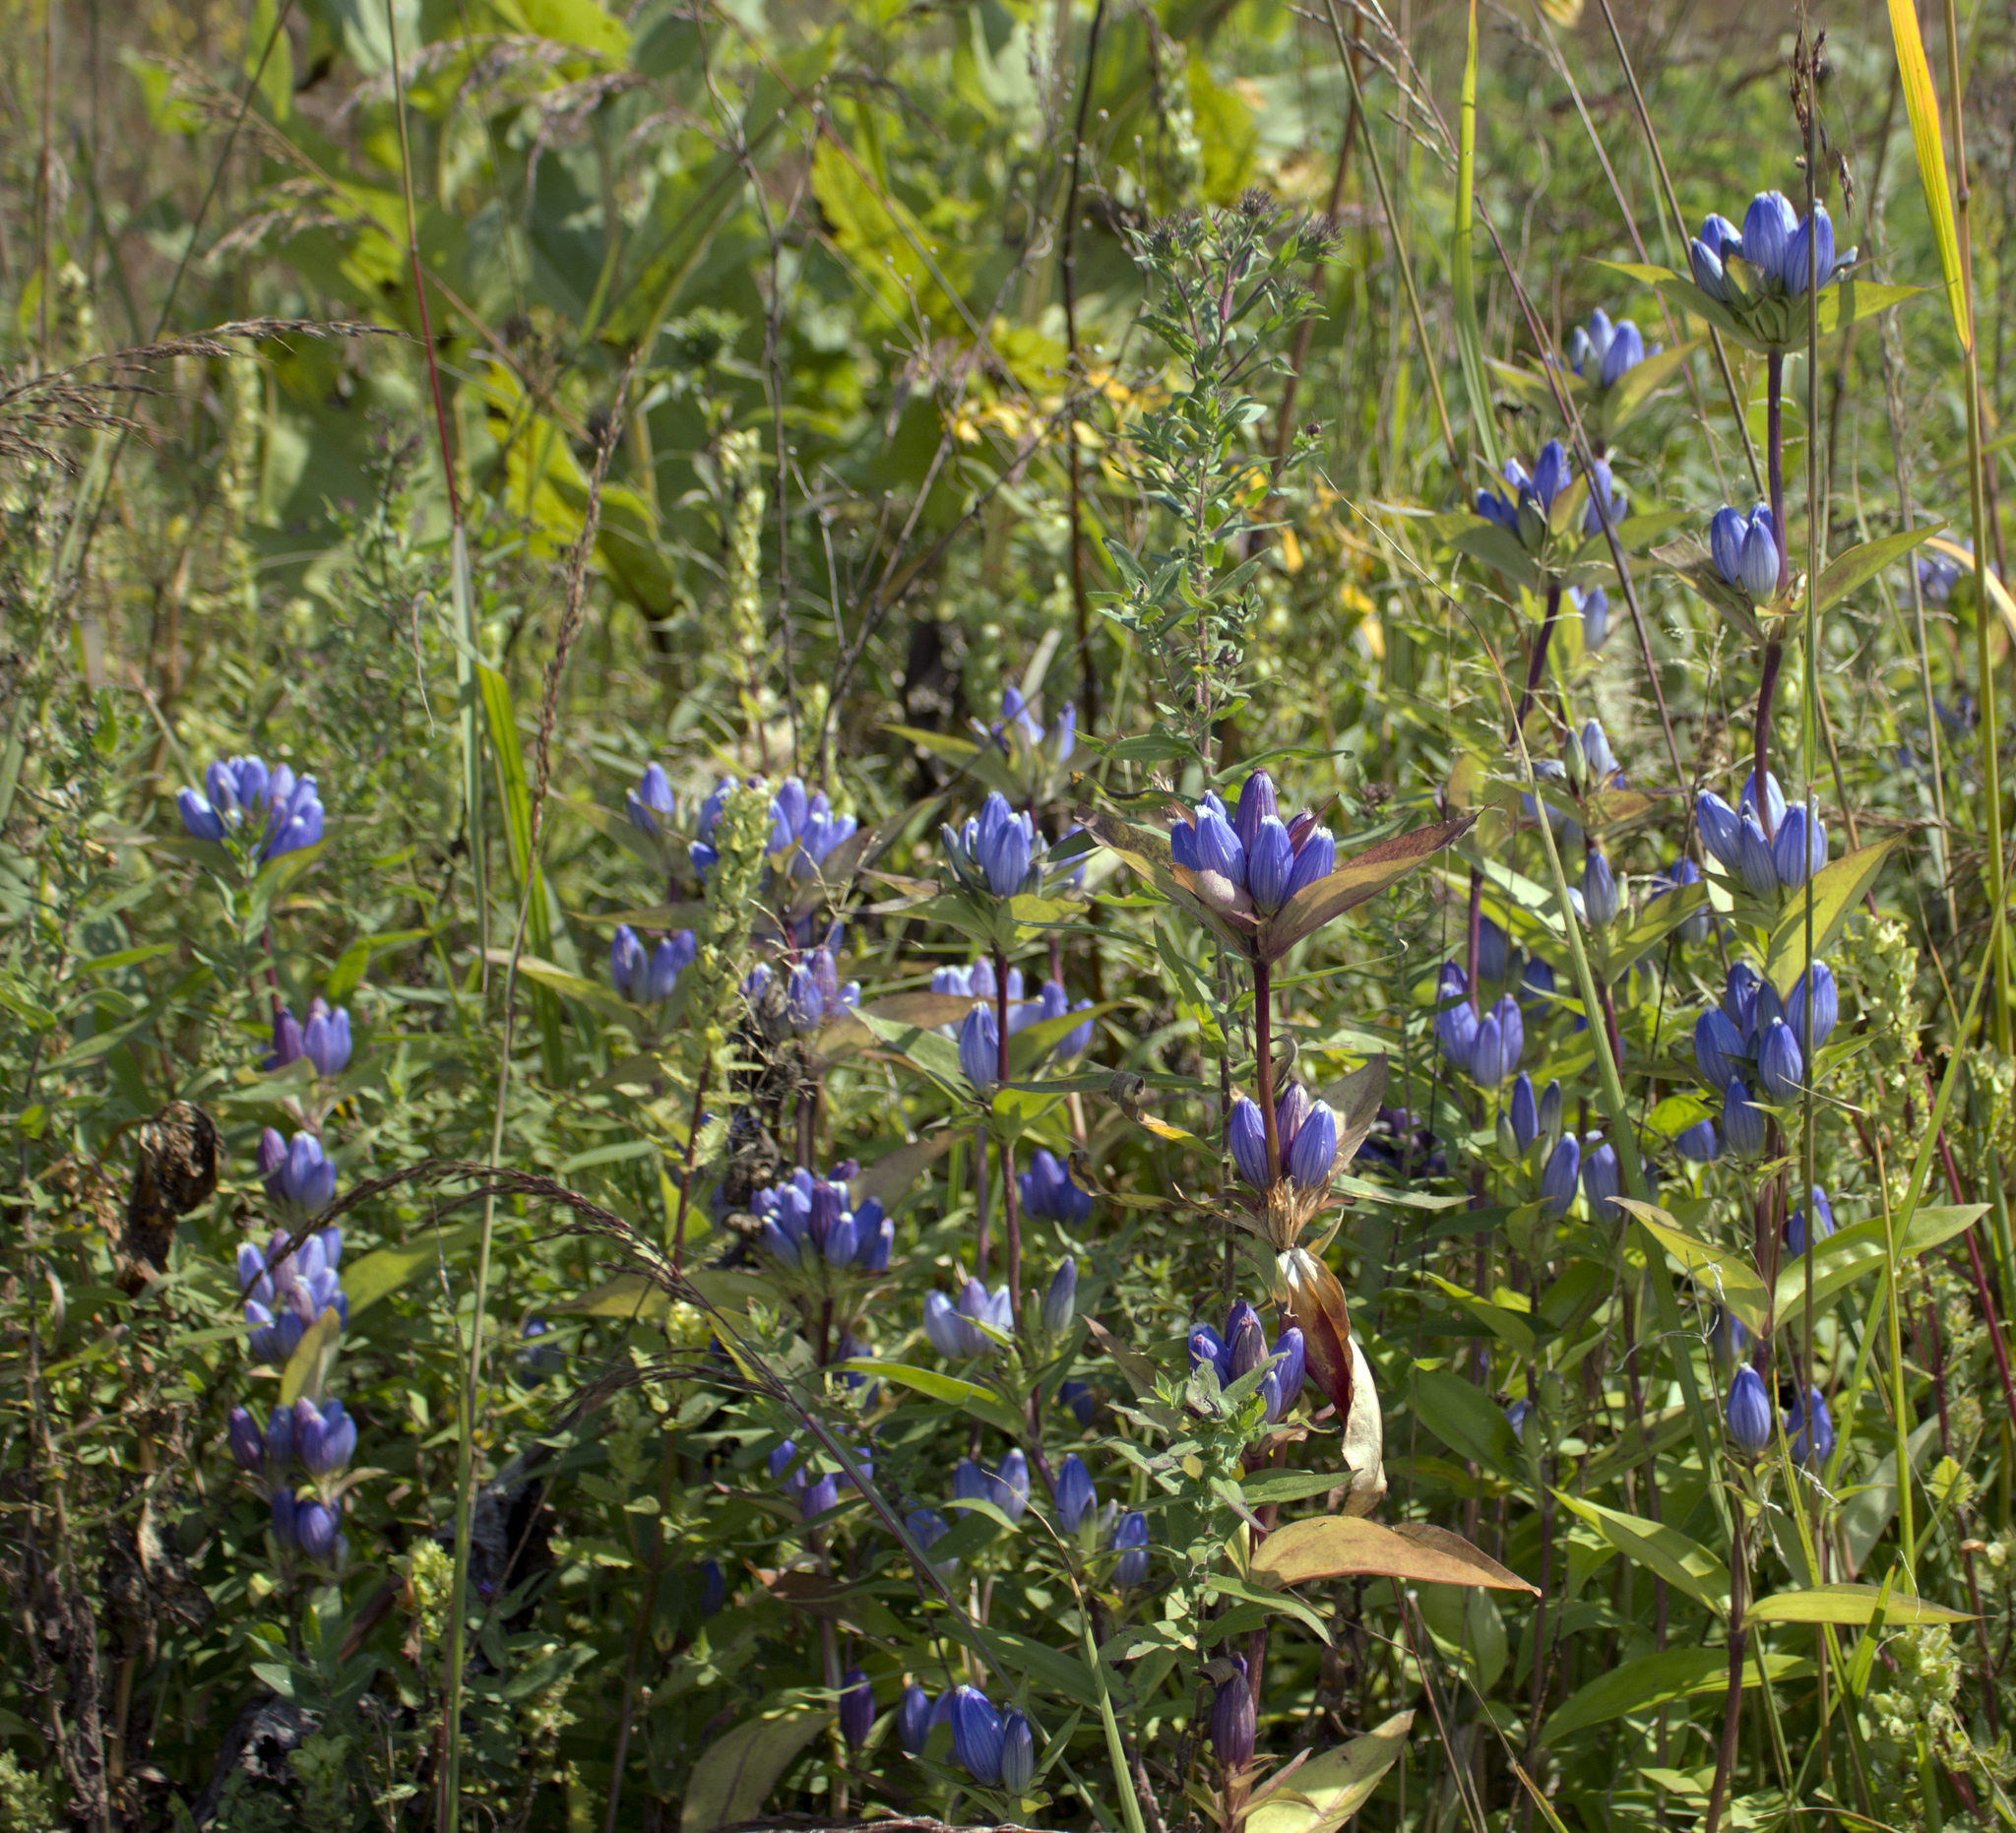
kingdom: Plantae
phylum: Tracheophyta
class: Magnoliopsida
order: Gentianales
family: Gentianaceae
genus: Gentiana
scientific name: Gentiana andrewsii
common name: Bottle gentian
